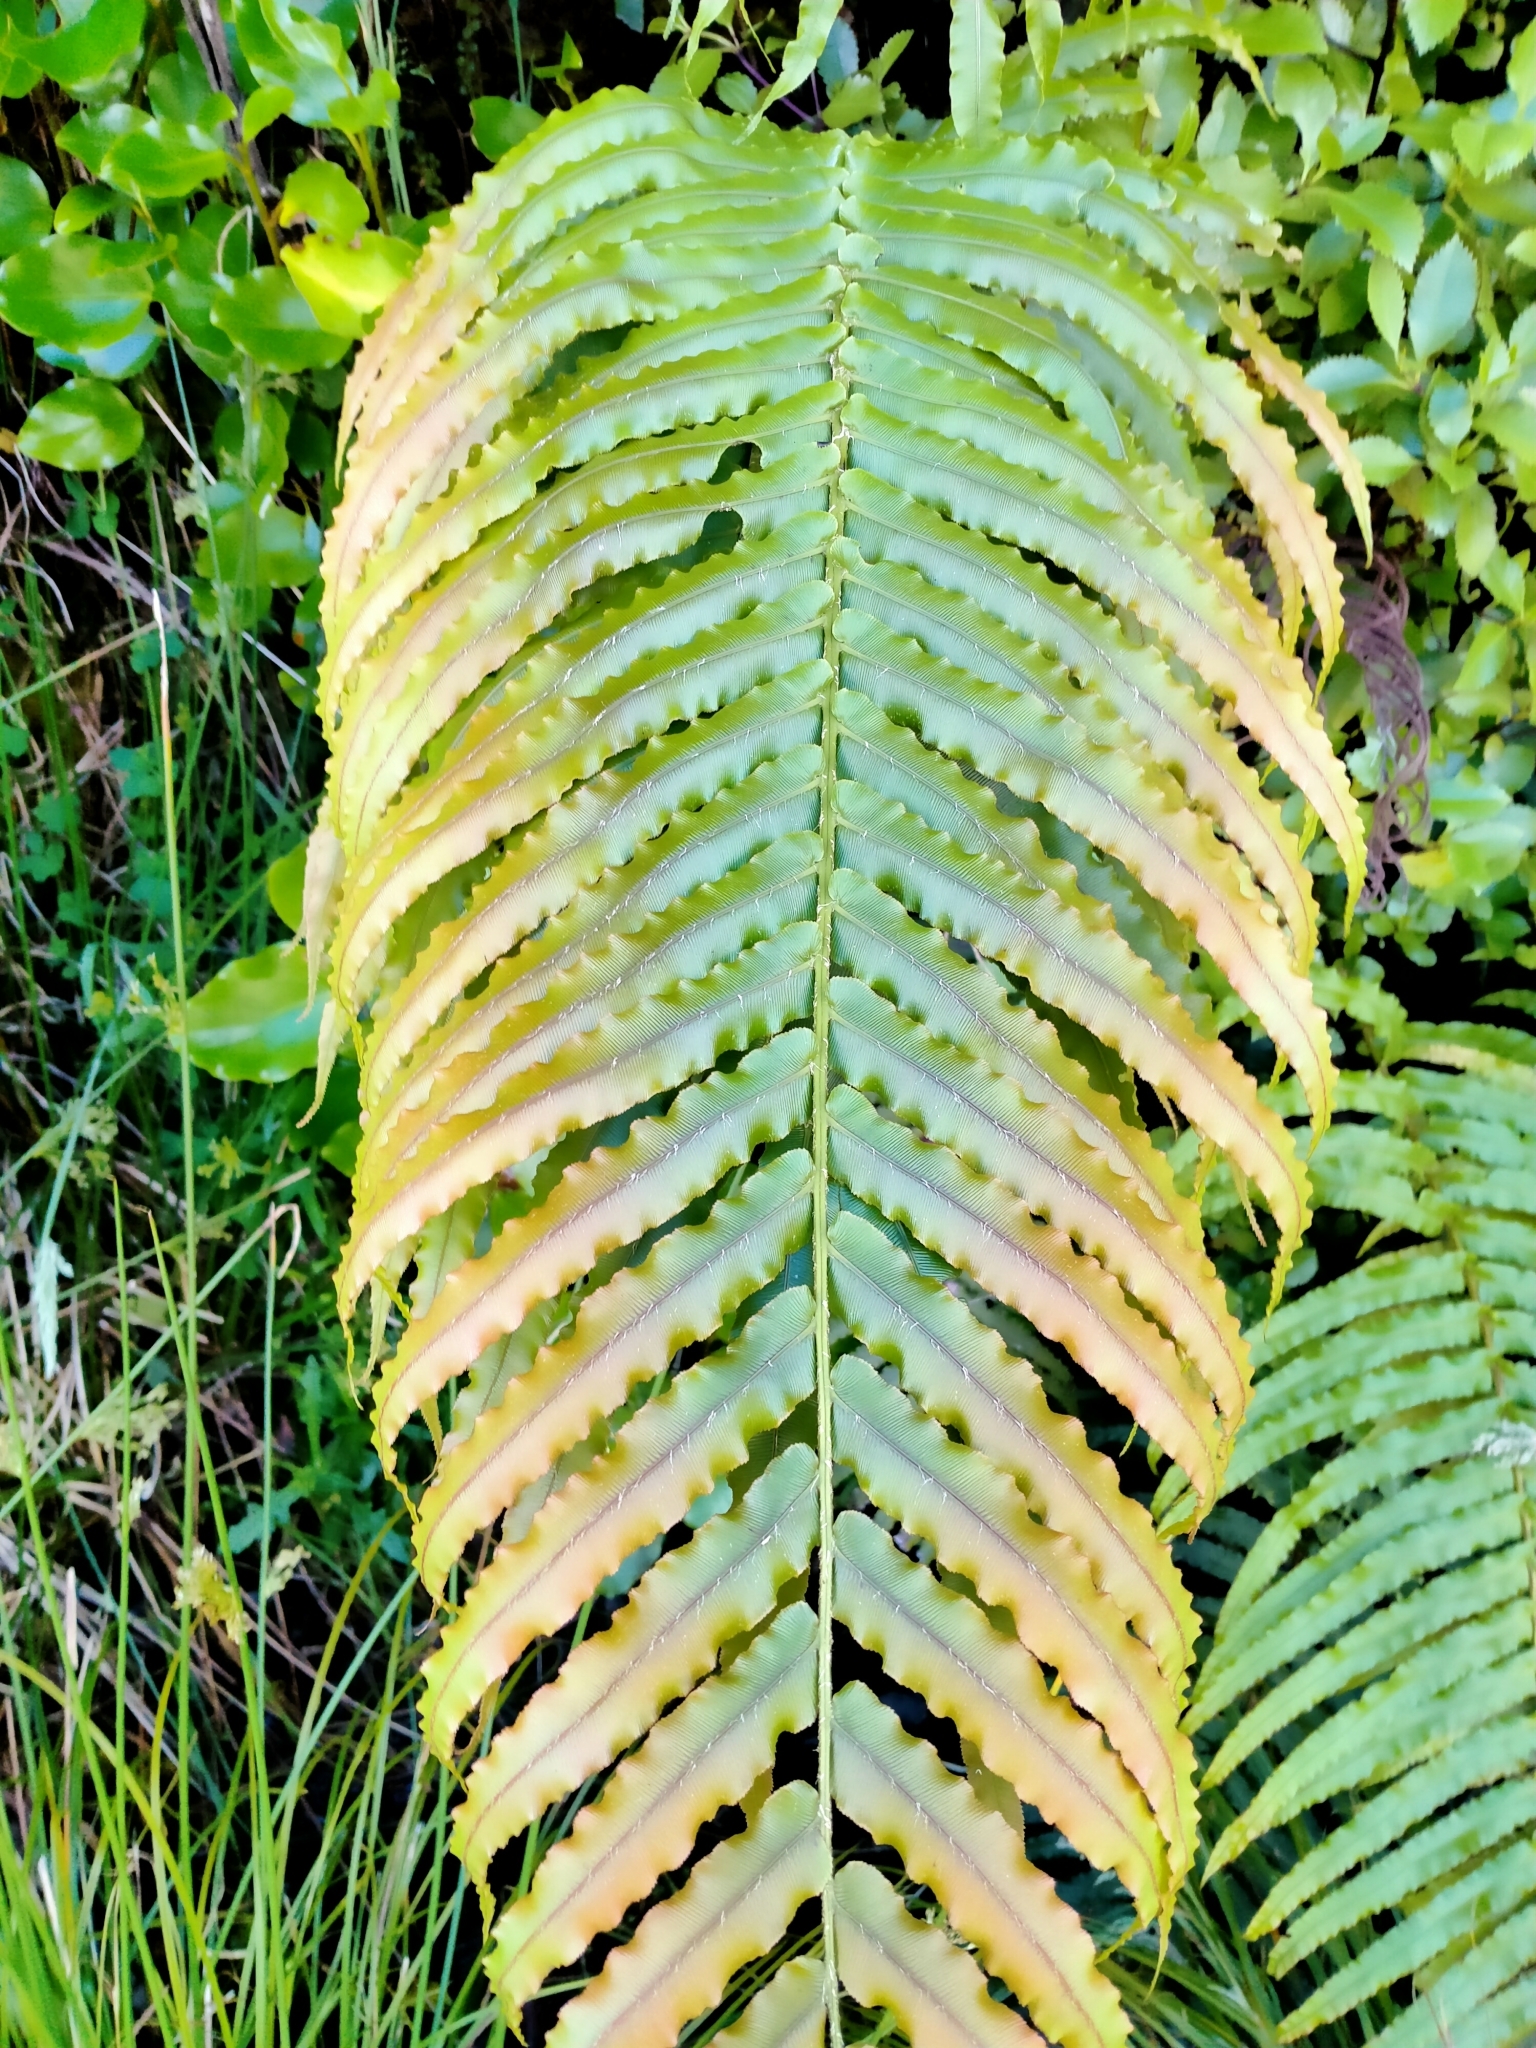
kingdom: Plantae
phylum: Tracheophyta
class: Polypodiopsida
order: Polypodiales
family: Blechnaceae
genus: Parablechnum
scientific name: Parablechnum novae-zelandiae
